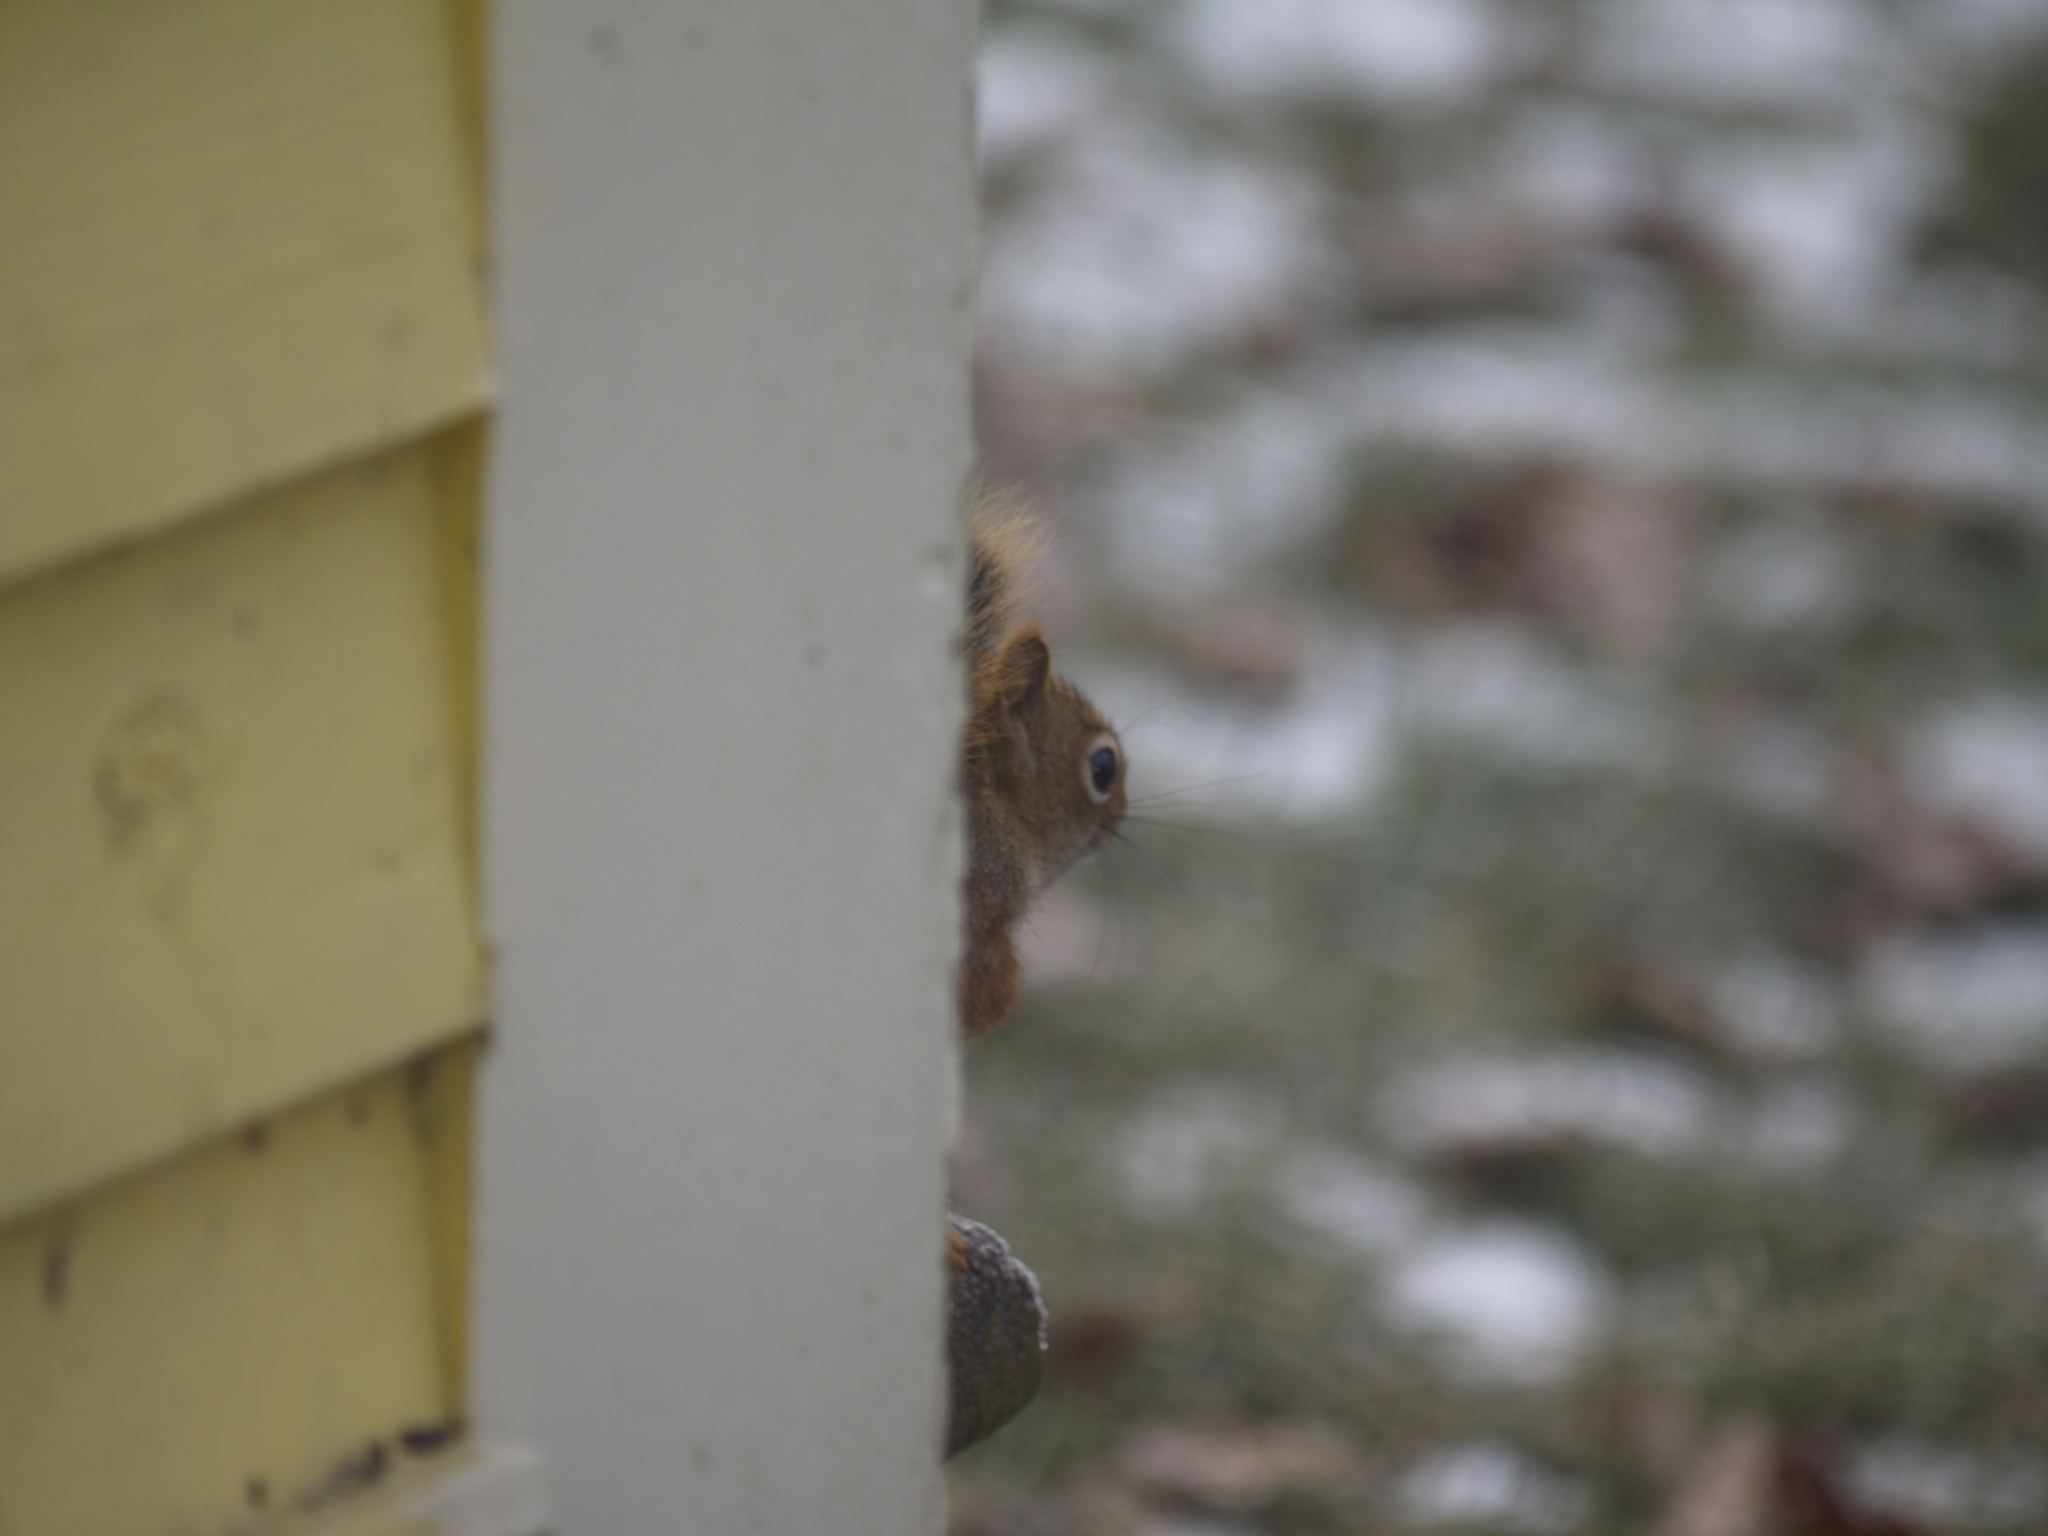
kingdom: Animalia
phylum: Chordata
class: Mammalia
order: Rodentia
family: Sciuridae
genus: Tamiasciurus
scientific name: Tamiasciurus hudsonicus
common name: Red squirrel
